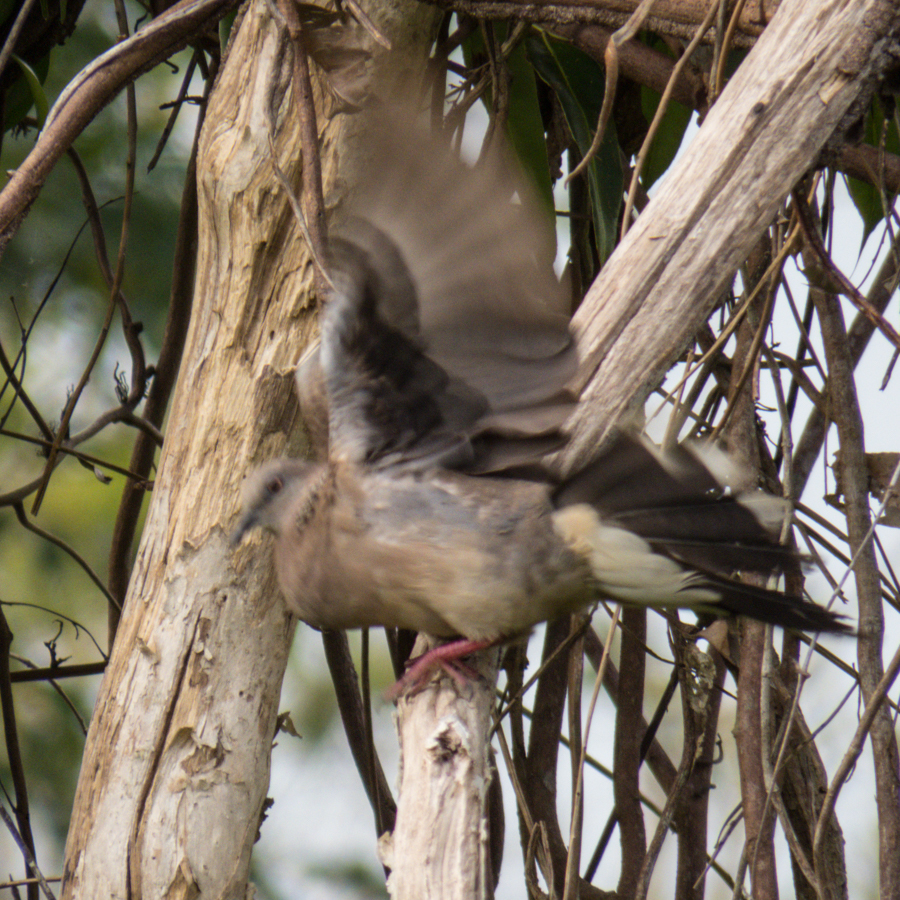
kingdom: Animalia
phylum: Chordata
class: Aves
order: Columbiformes
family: Columbidae
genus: Spilopelia
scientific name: Spilopelia chinensis
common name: Spotted dove
